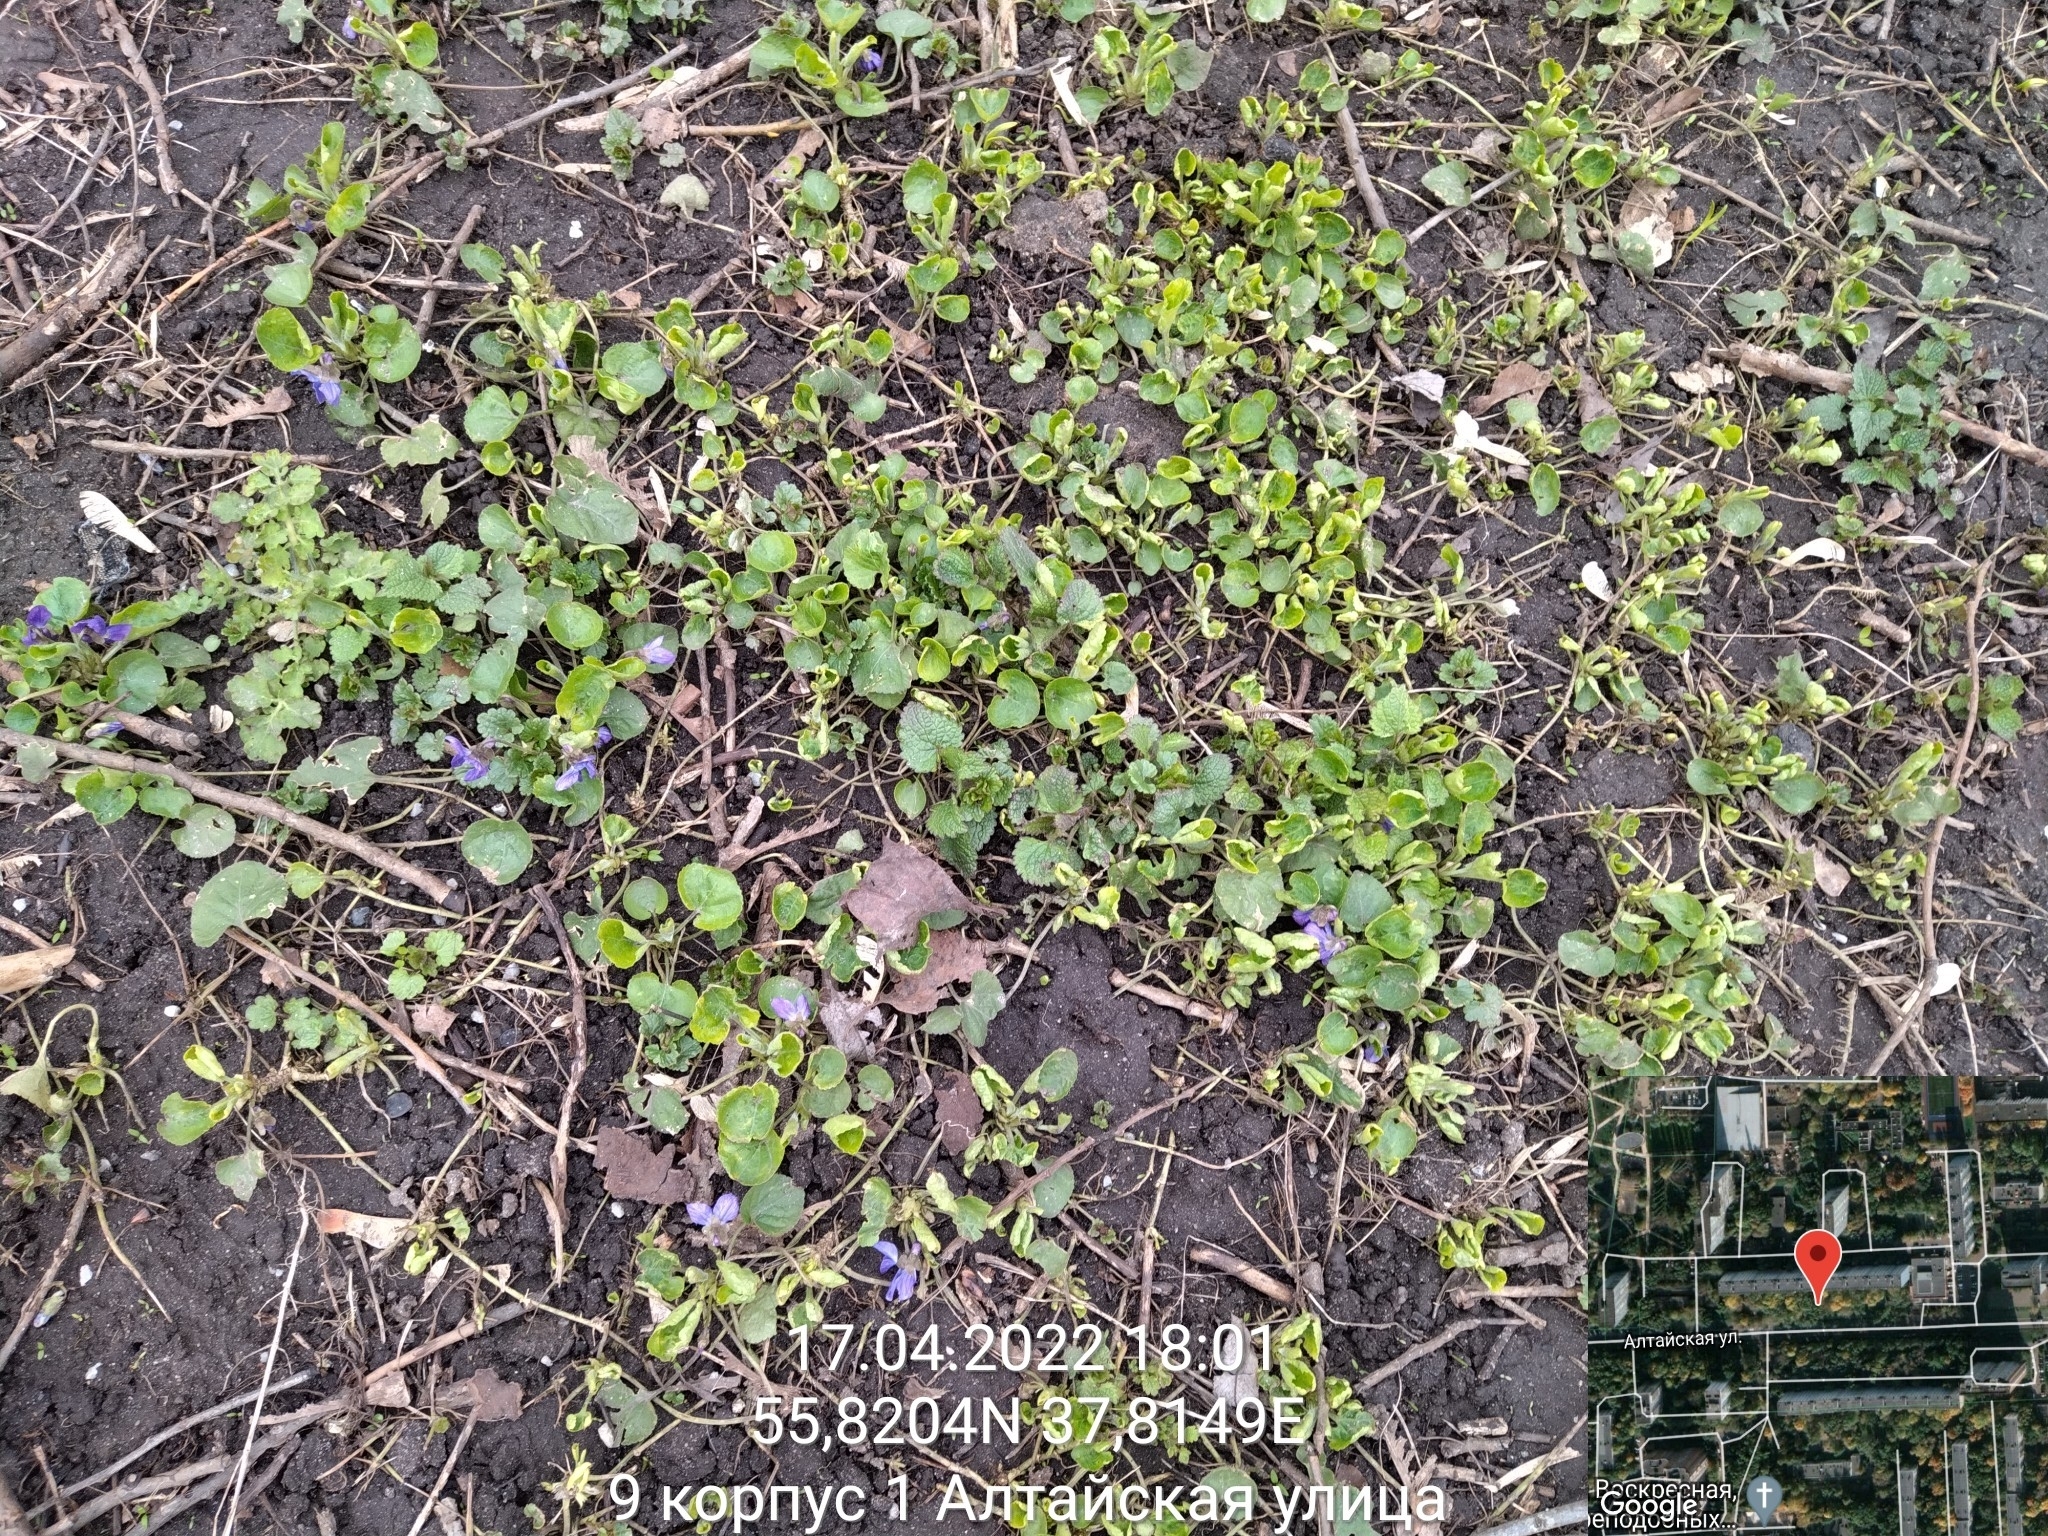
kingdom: Plantae
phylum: Tracheophyta
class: Magnoliopsida
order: Malpighiales
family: Violaceae
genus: Viola
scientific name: Viola odorata
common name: Sweet violet
